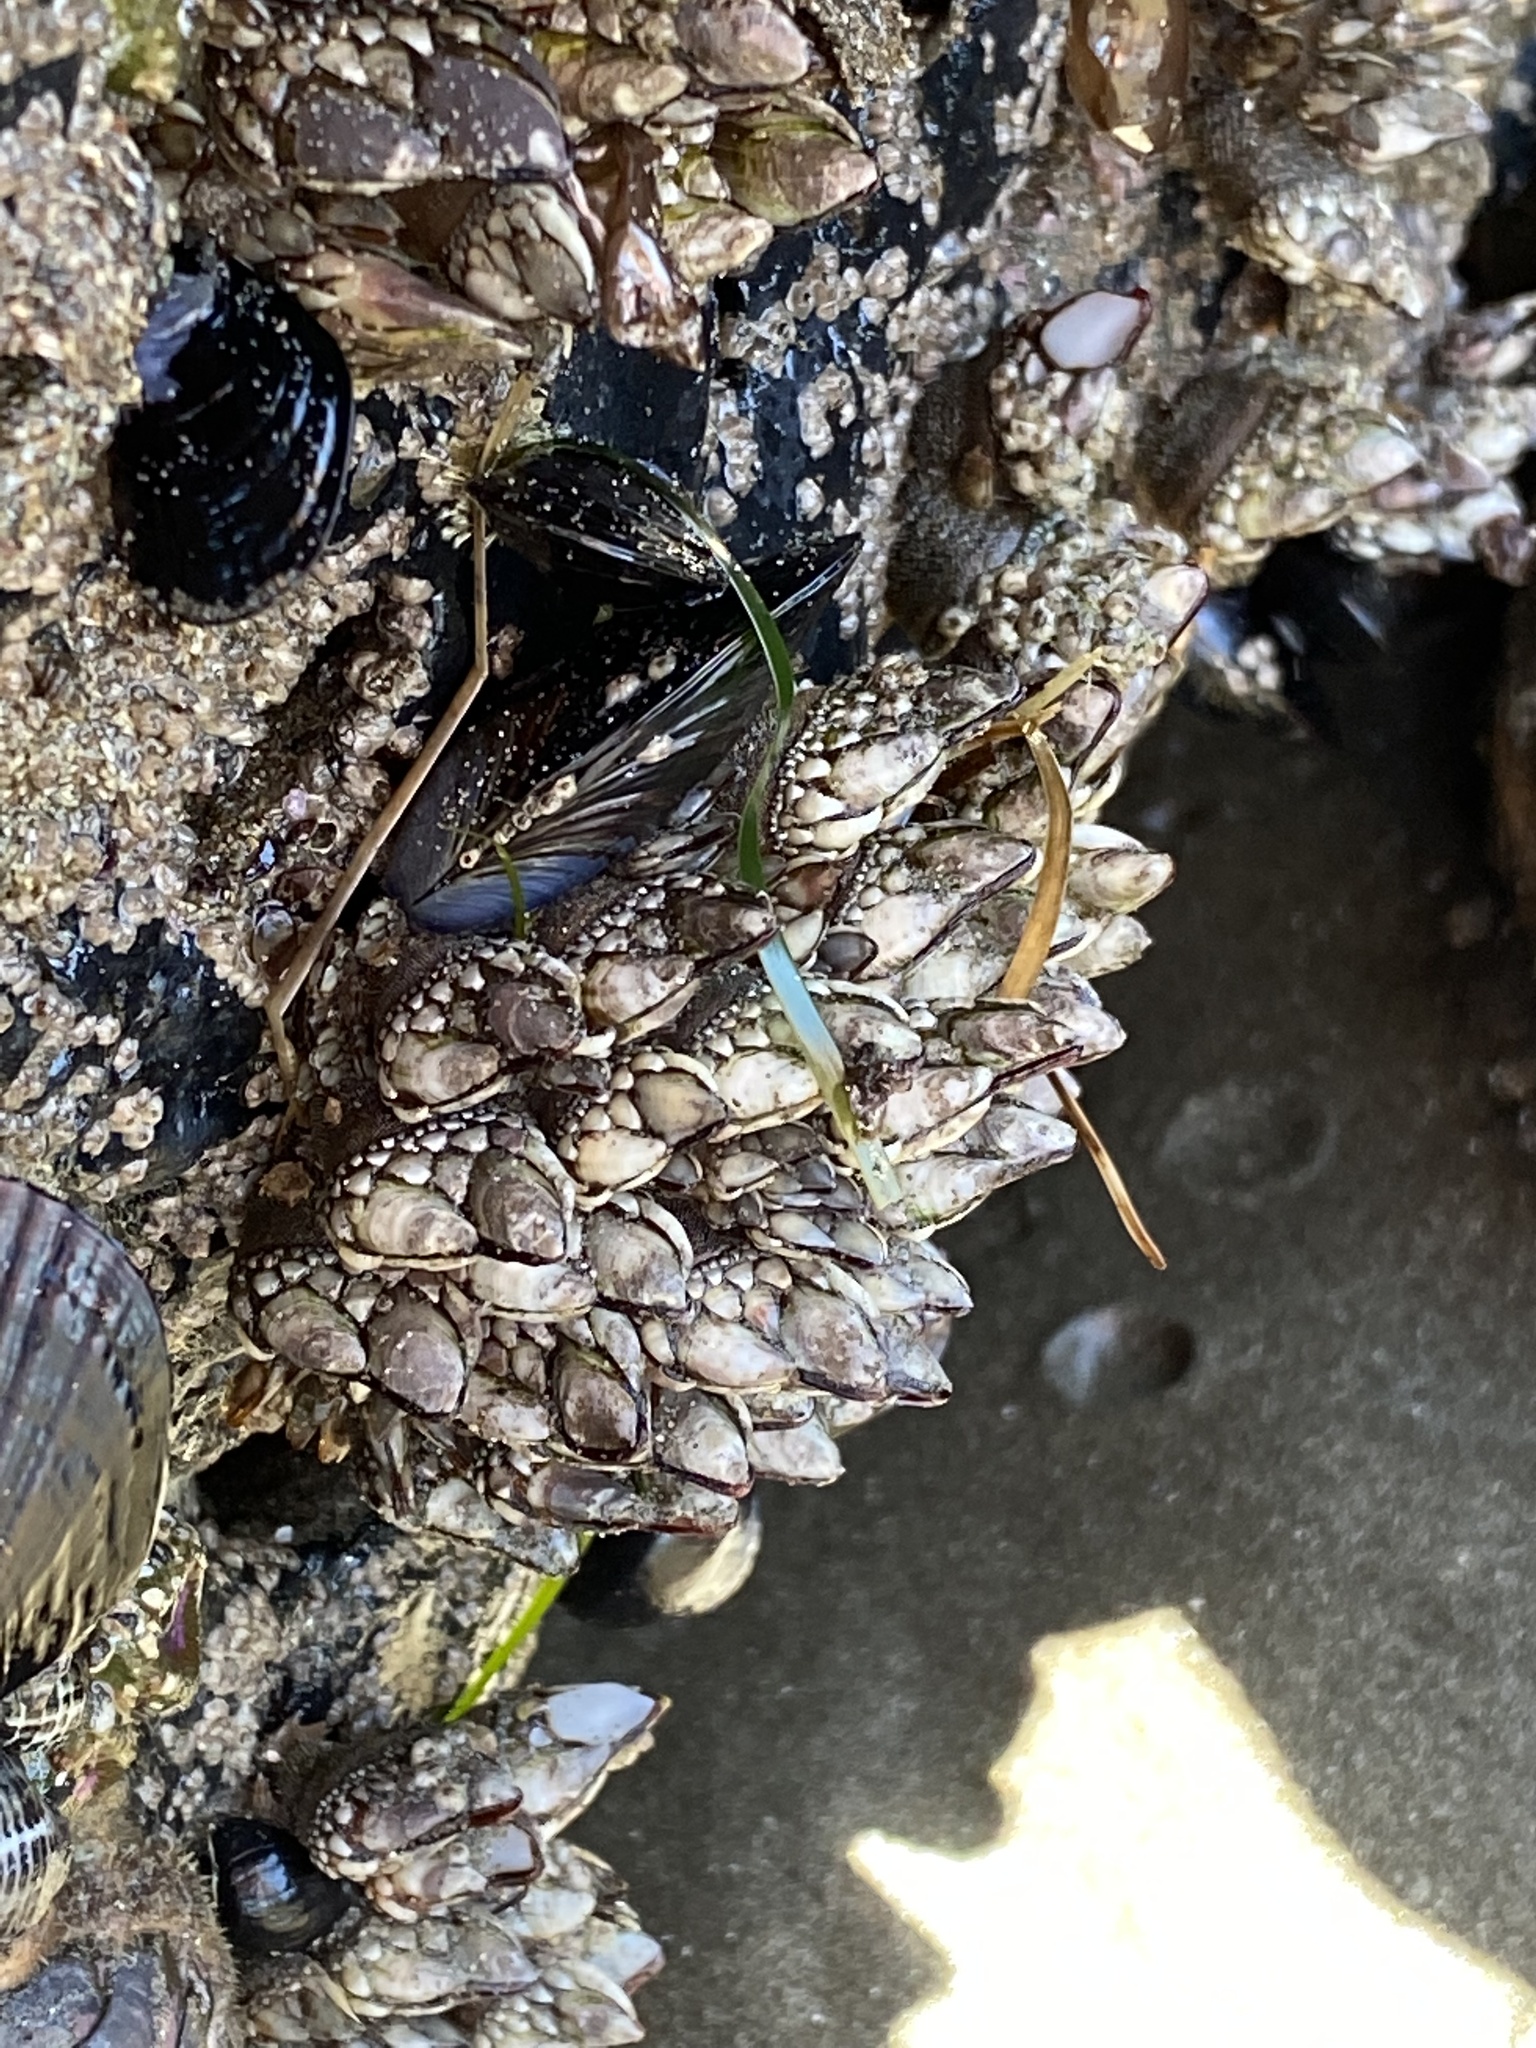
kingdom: Animalia
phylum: Arthropoda
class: Maxillopoda
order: Pedunculata
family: Pollicipedidae
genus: Pollicipes
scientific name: Pollicipes polymerus
